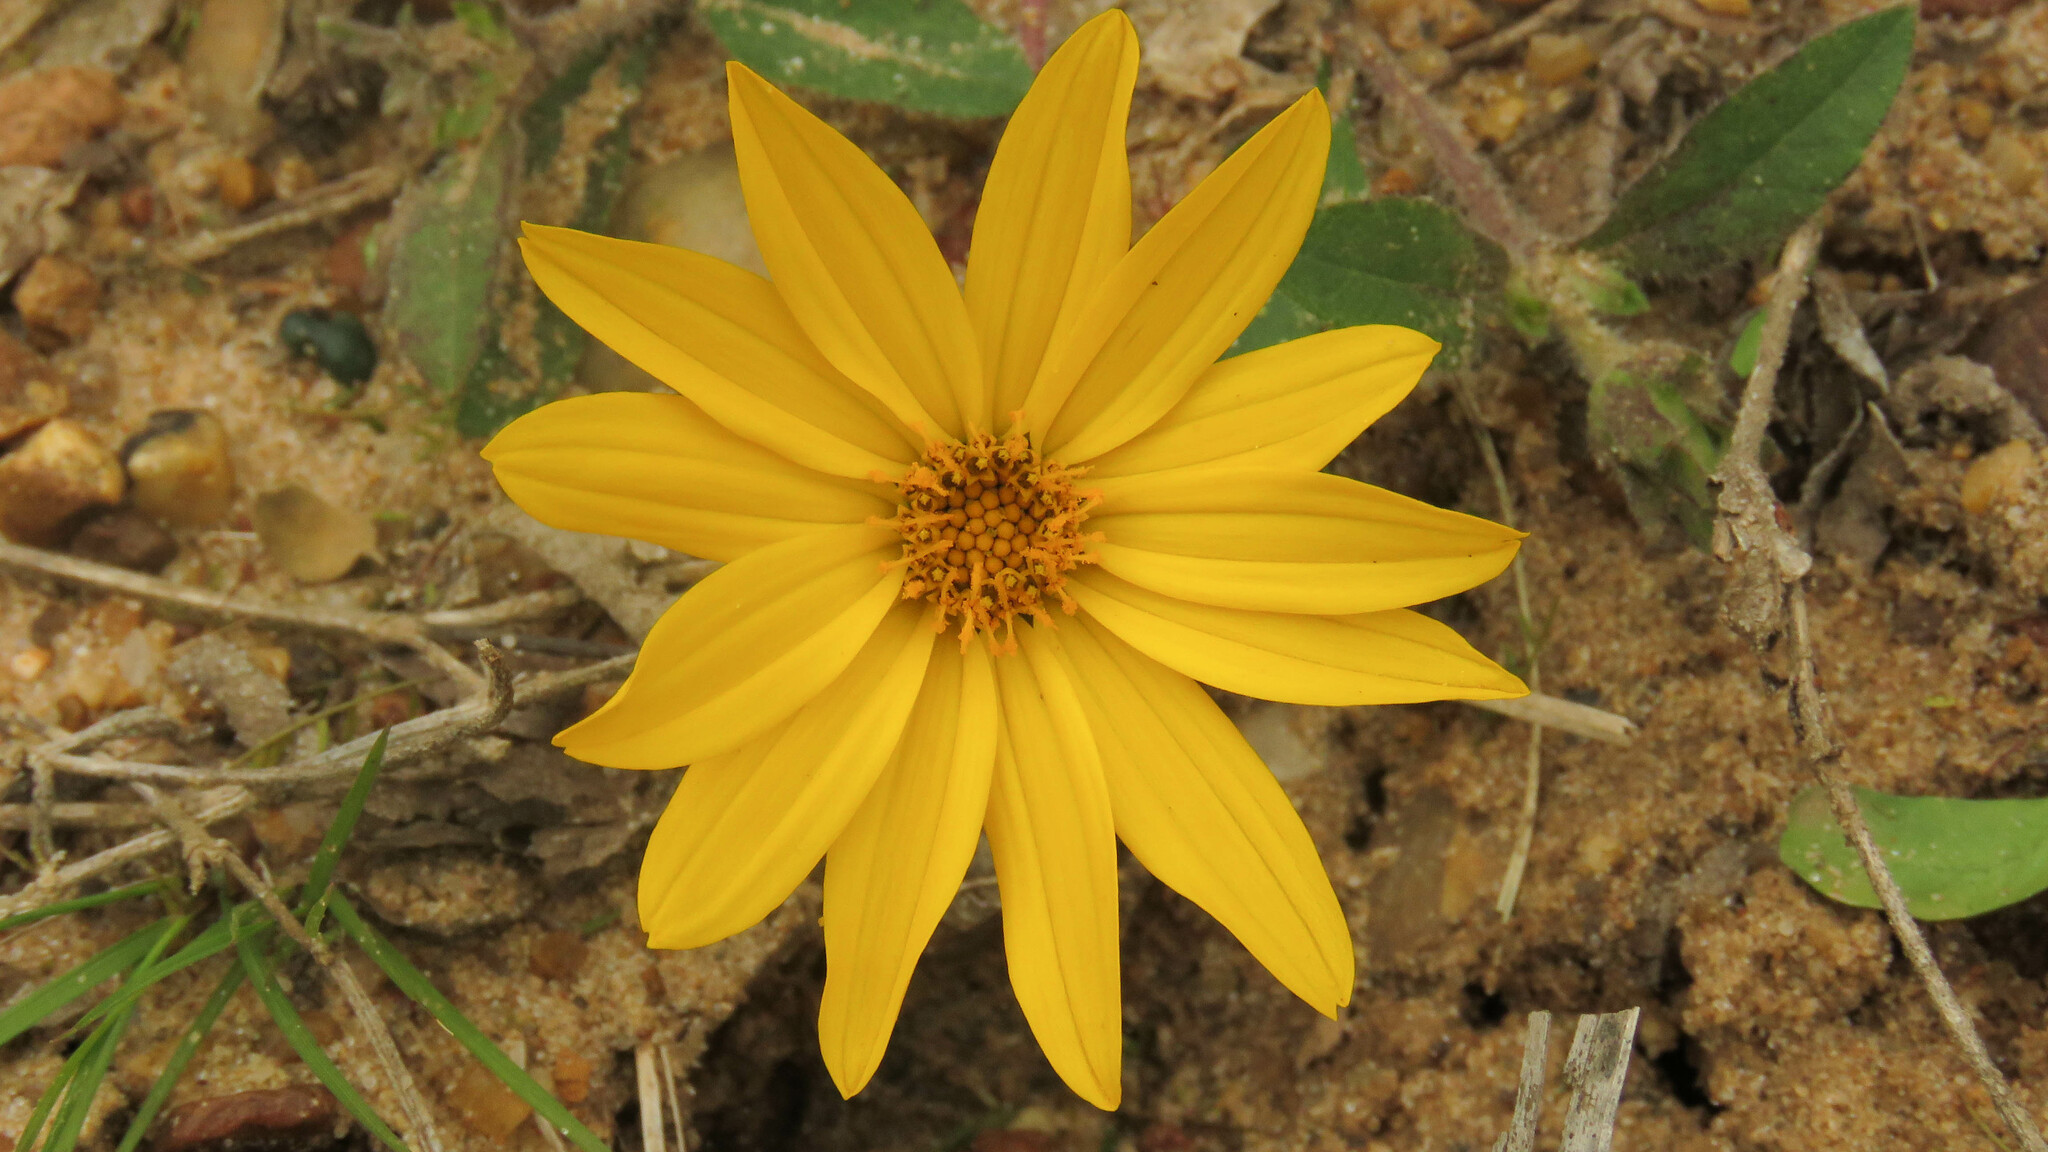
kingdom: Plantae
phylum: Tracheophyta
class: Magnoliopsida
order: Asterales
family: Asteraceae
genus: Wedelia
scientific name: Wedelia montevidensis
